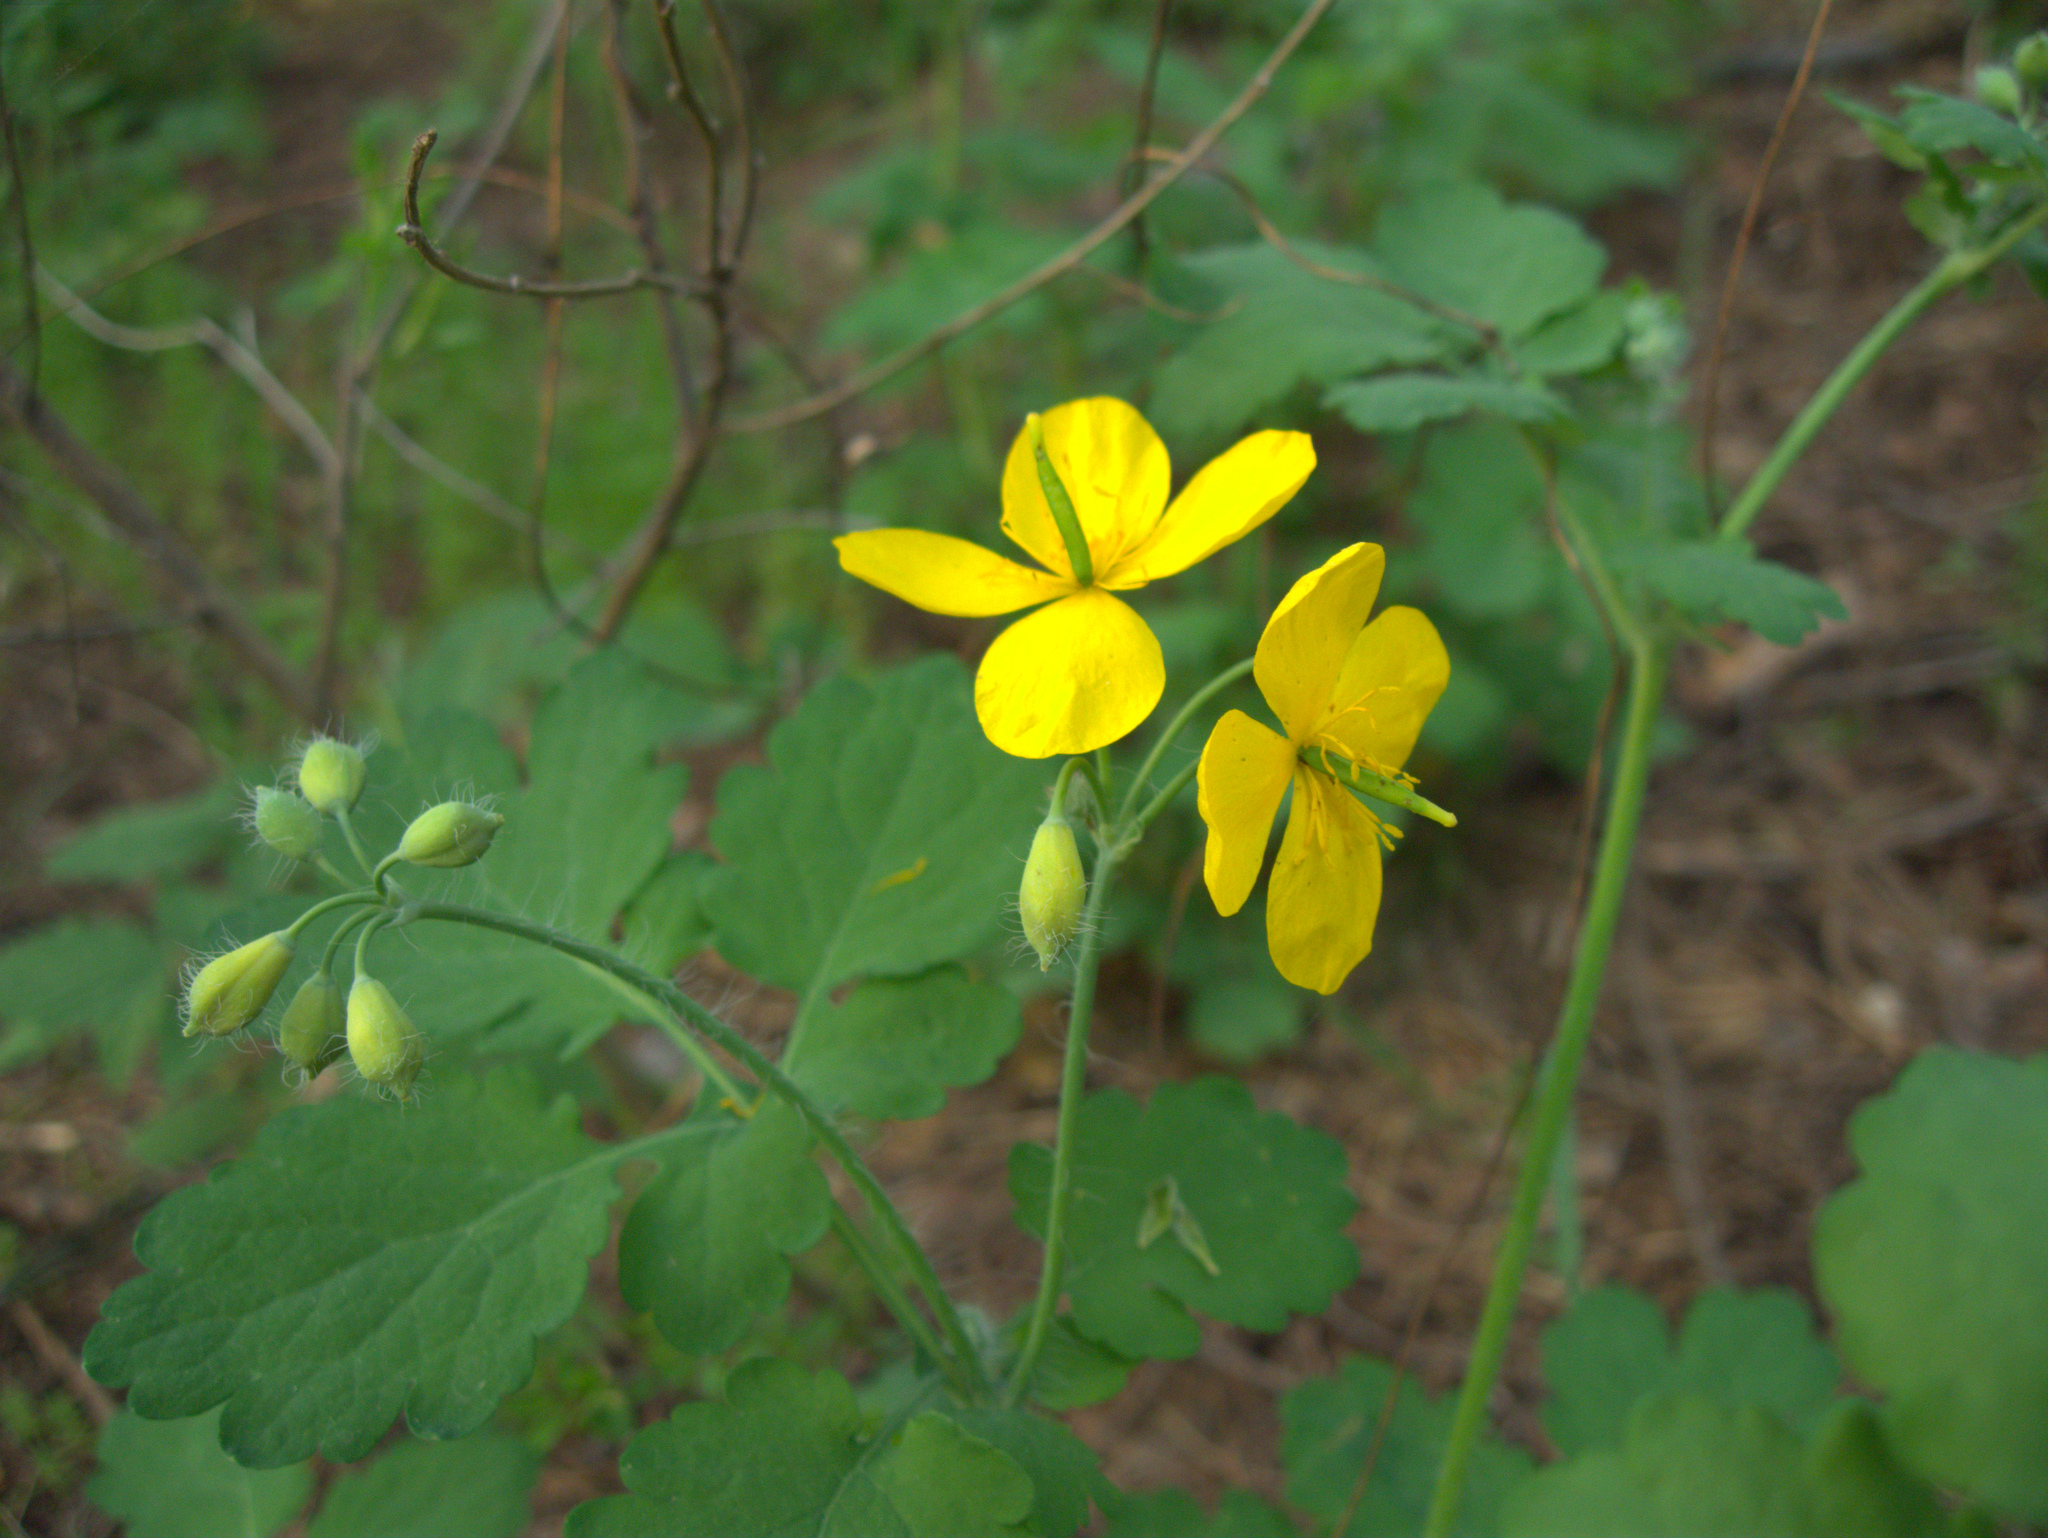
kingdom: Plantae
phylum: Tracheophyta
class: Magnoliopsida
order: Ranunculales
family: Papaveraceae
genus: Chelidonium
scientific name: Chelidonium majus
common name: Greater celandine
